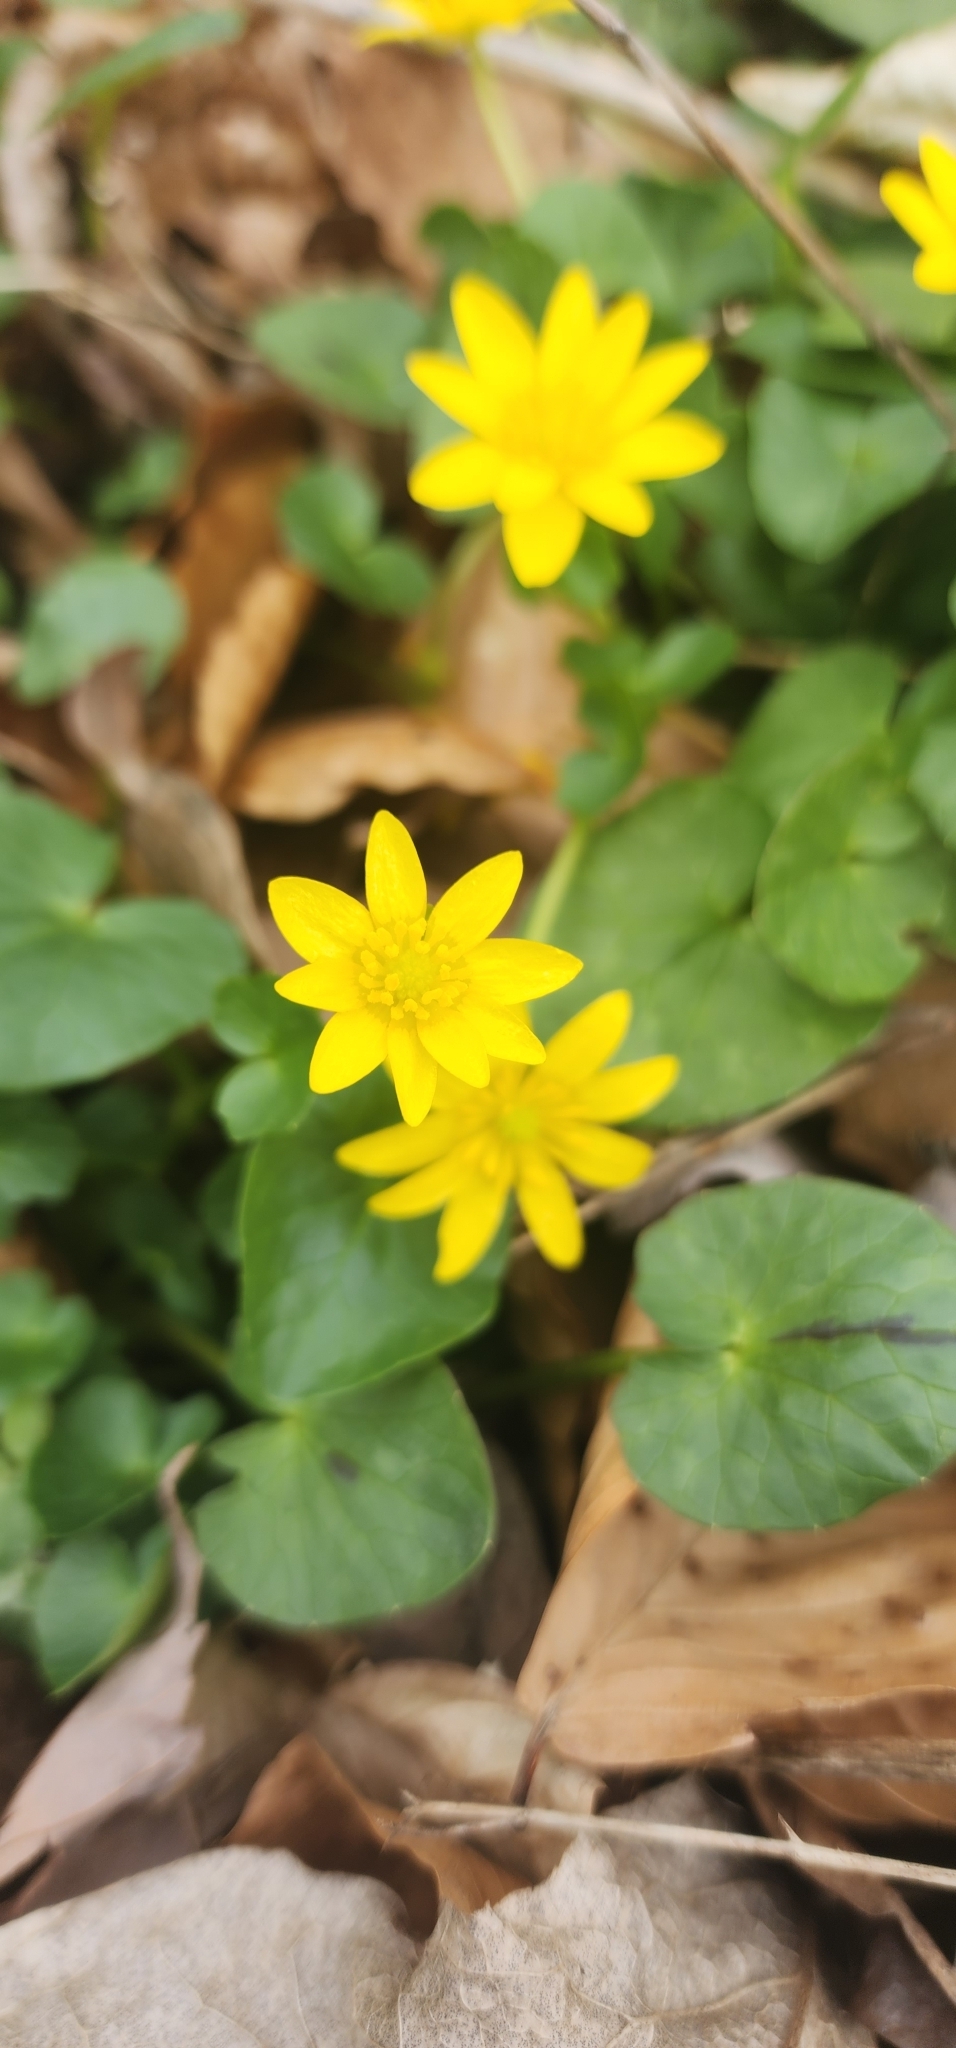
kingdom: Plantae
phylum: Tracheophyta
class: Magnoliopsida
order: Ranunculales
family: Ranunculaceae
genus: Ficaria
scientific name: Ficaria verna
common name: Lesser celandine
